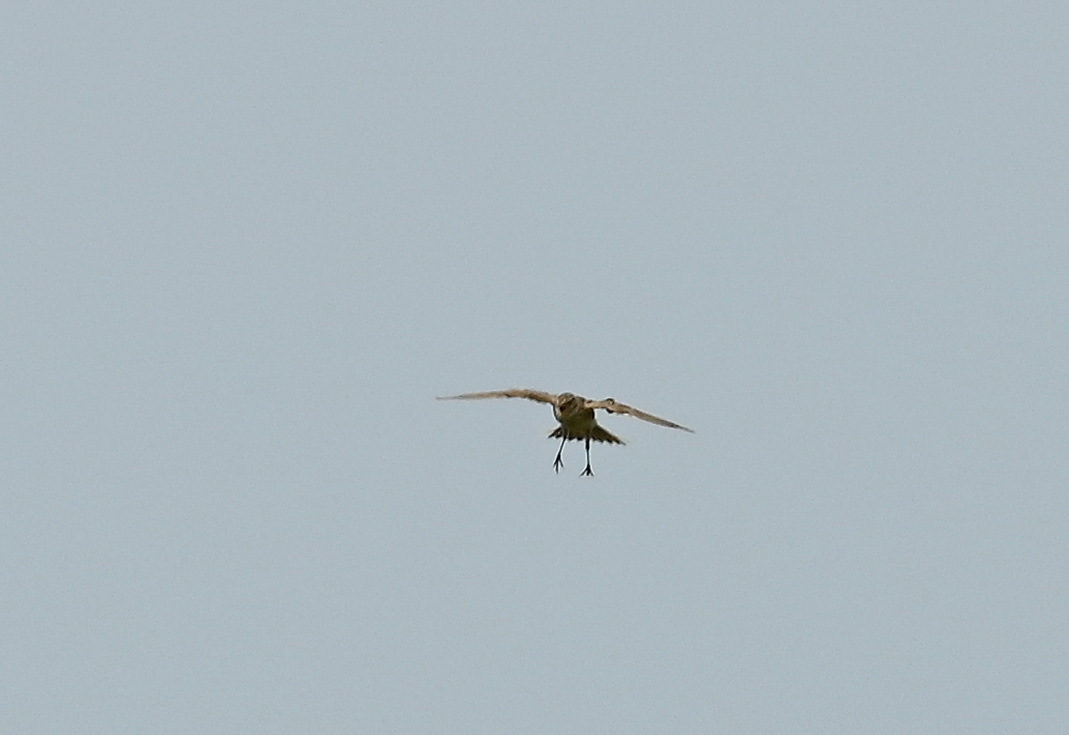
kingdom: Animalia
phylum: Chordata
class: Aves
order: Passeriformes
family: Alaudidae
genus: Alauda
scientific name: Alauda arvensis
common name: Eurasian skylark
